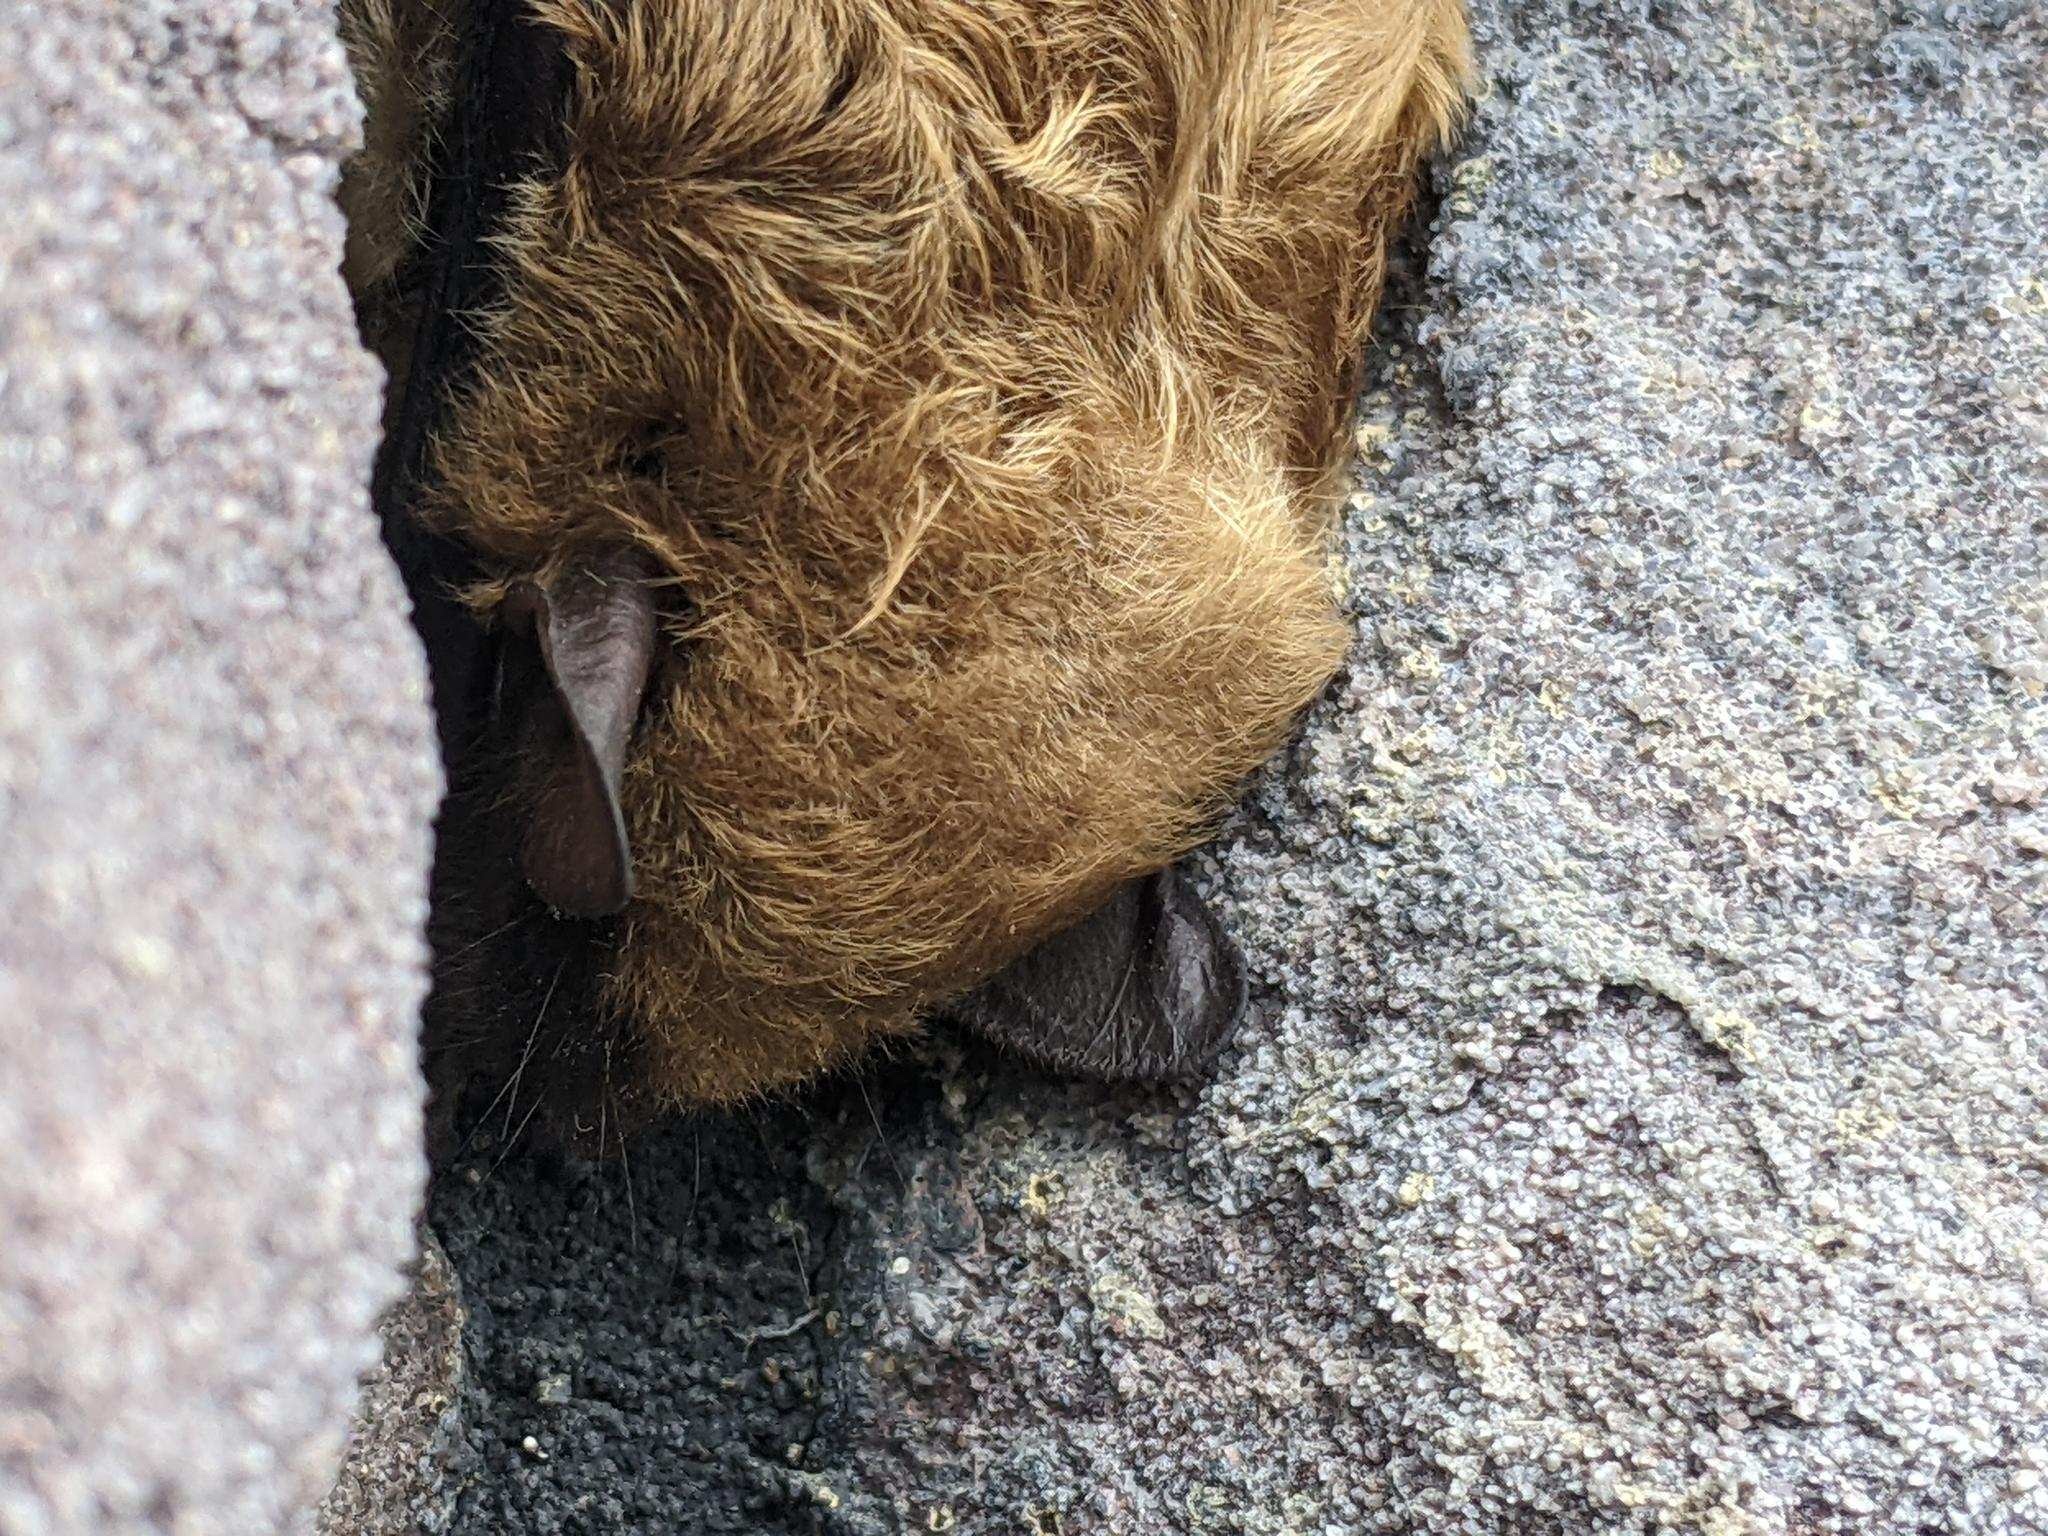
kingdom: Animalia
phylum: Chordata
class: Mammalia
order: Chiroptera
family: Vespertilionidae
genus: Eptesicus
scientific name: Eptesicus fuscus
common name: Big brown bat
